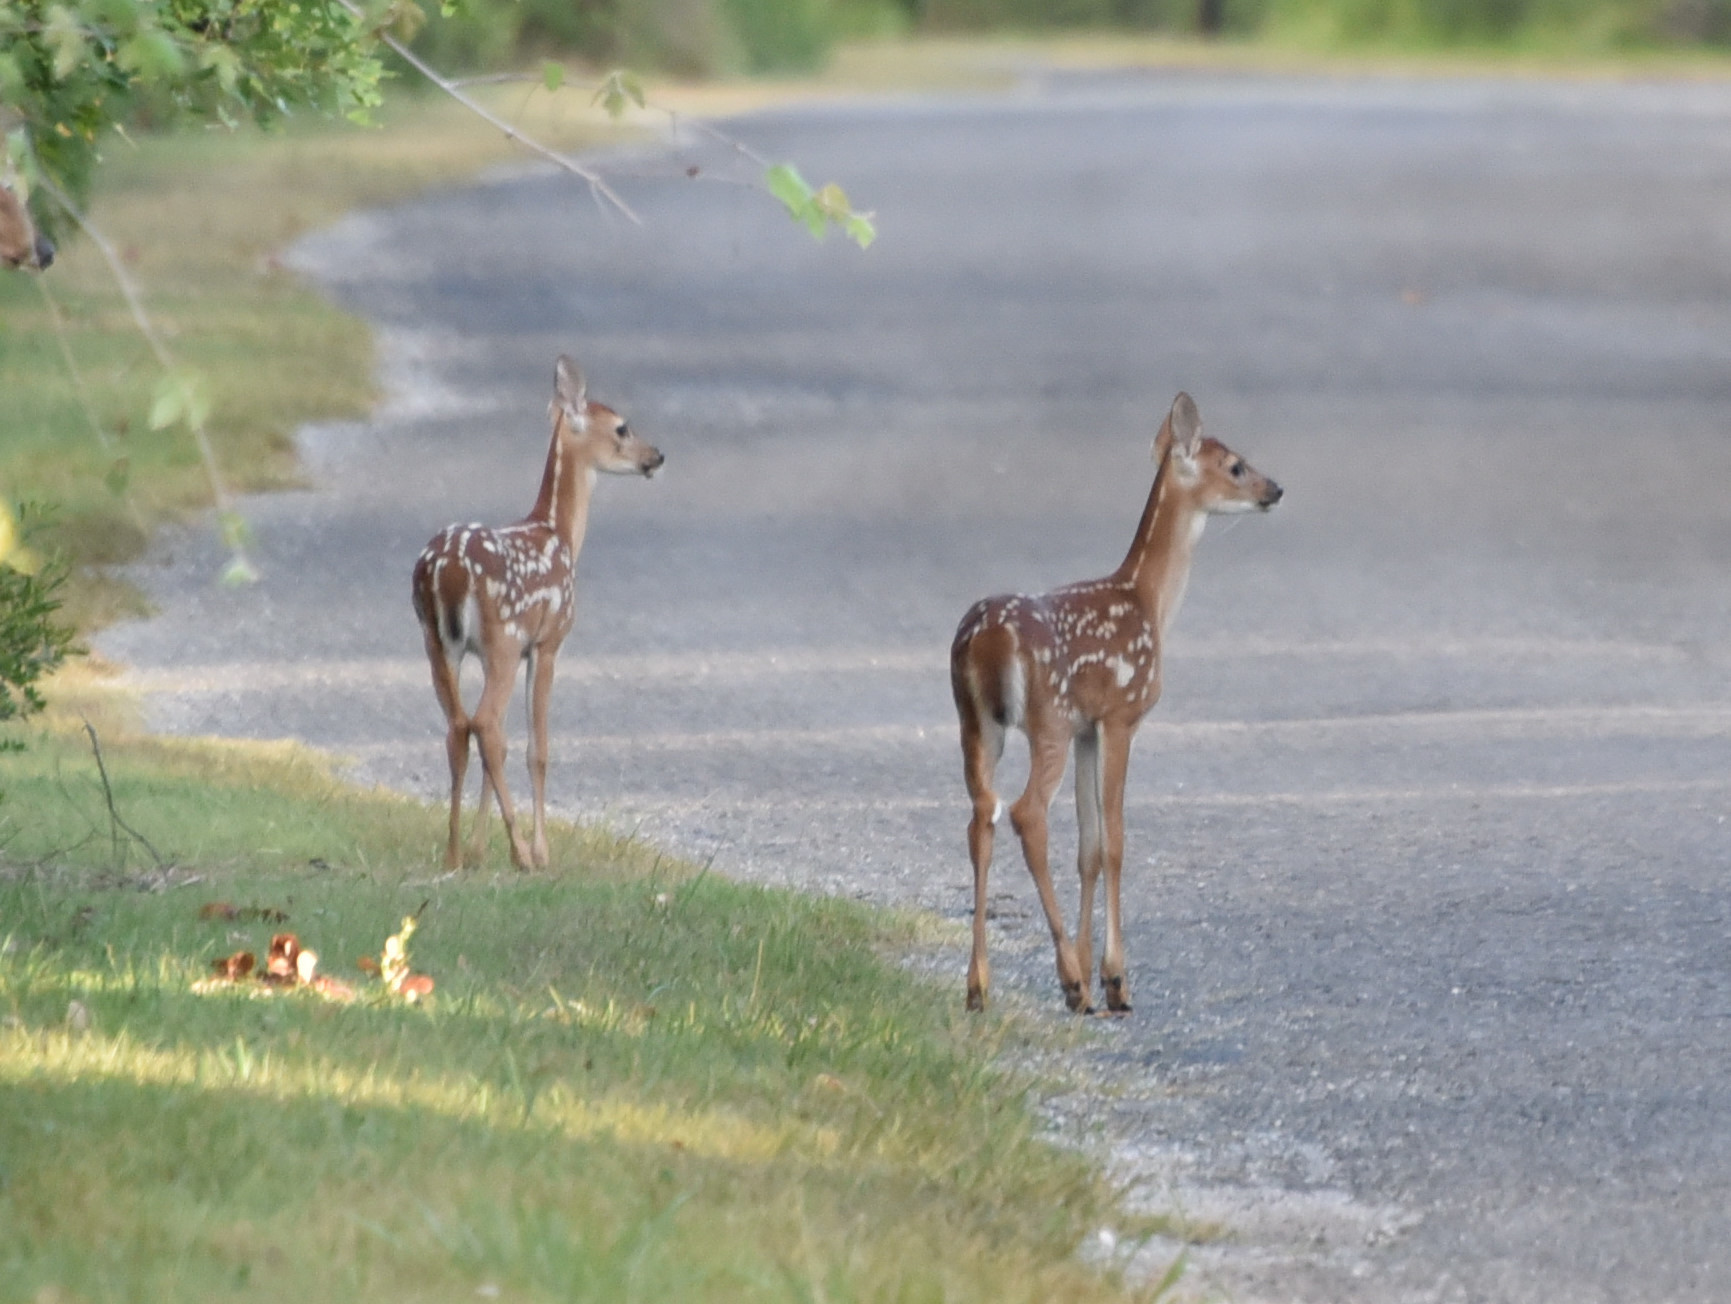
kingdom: Animalia
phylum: Chordata
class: Mammalia
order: Artiodactyla
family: Cervidae
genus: Odocoileus
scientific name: Odocoileus virginianus
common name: White-tailed deer
